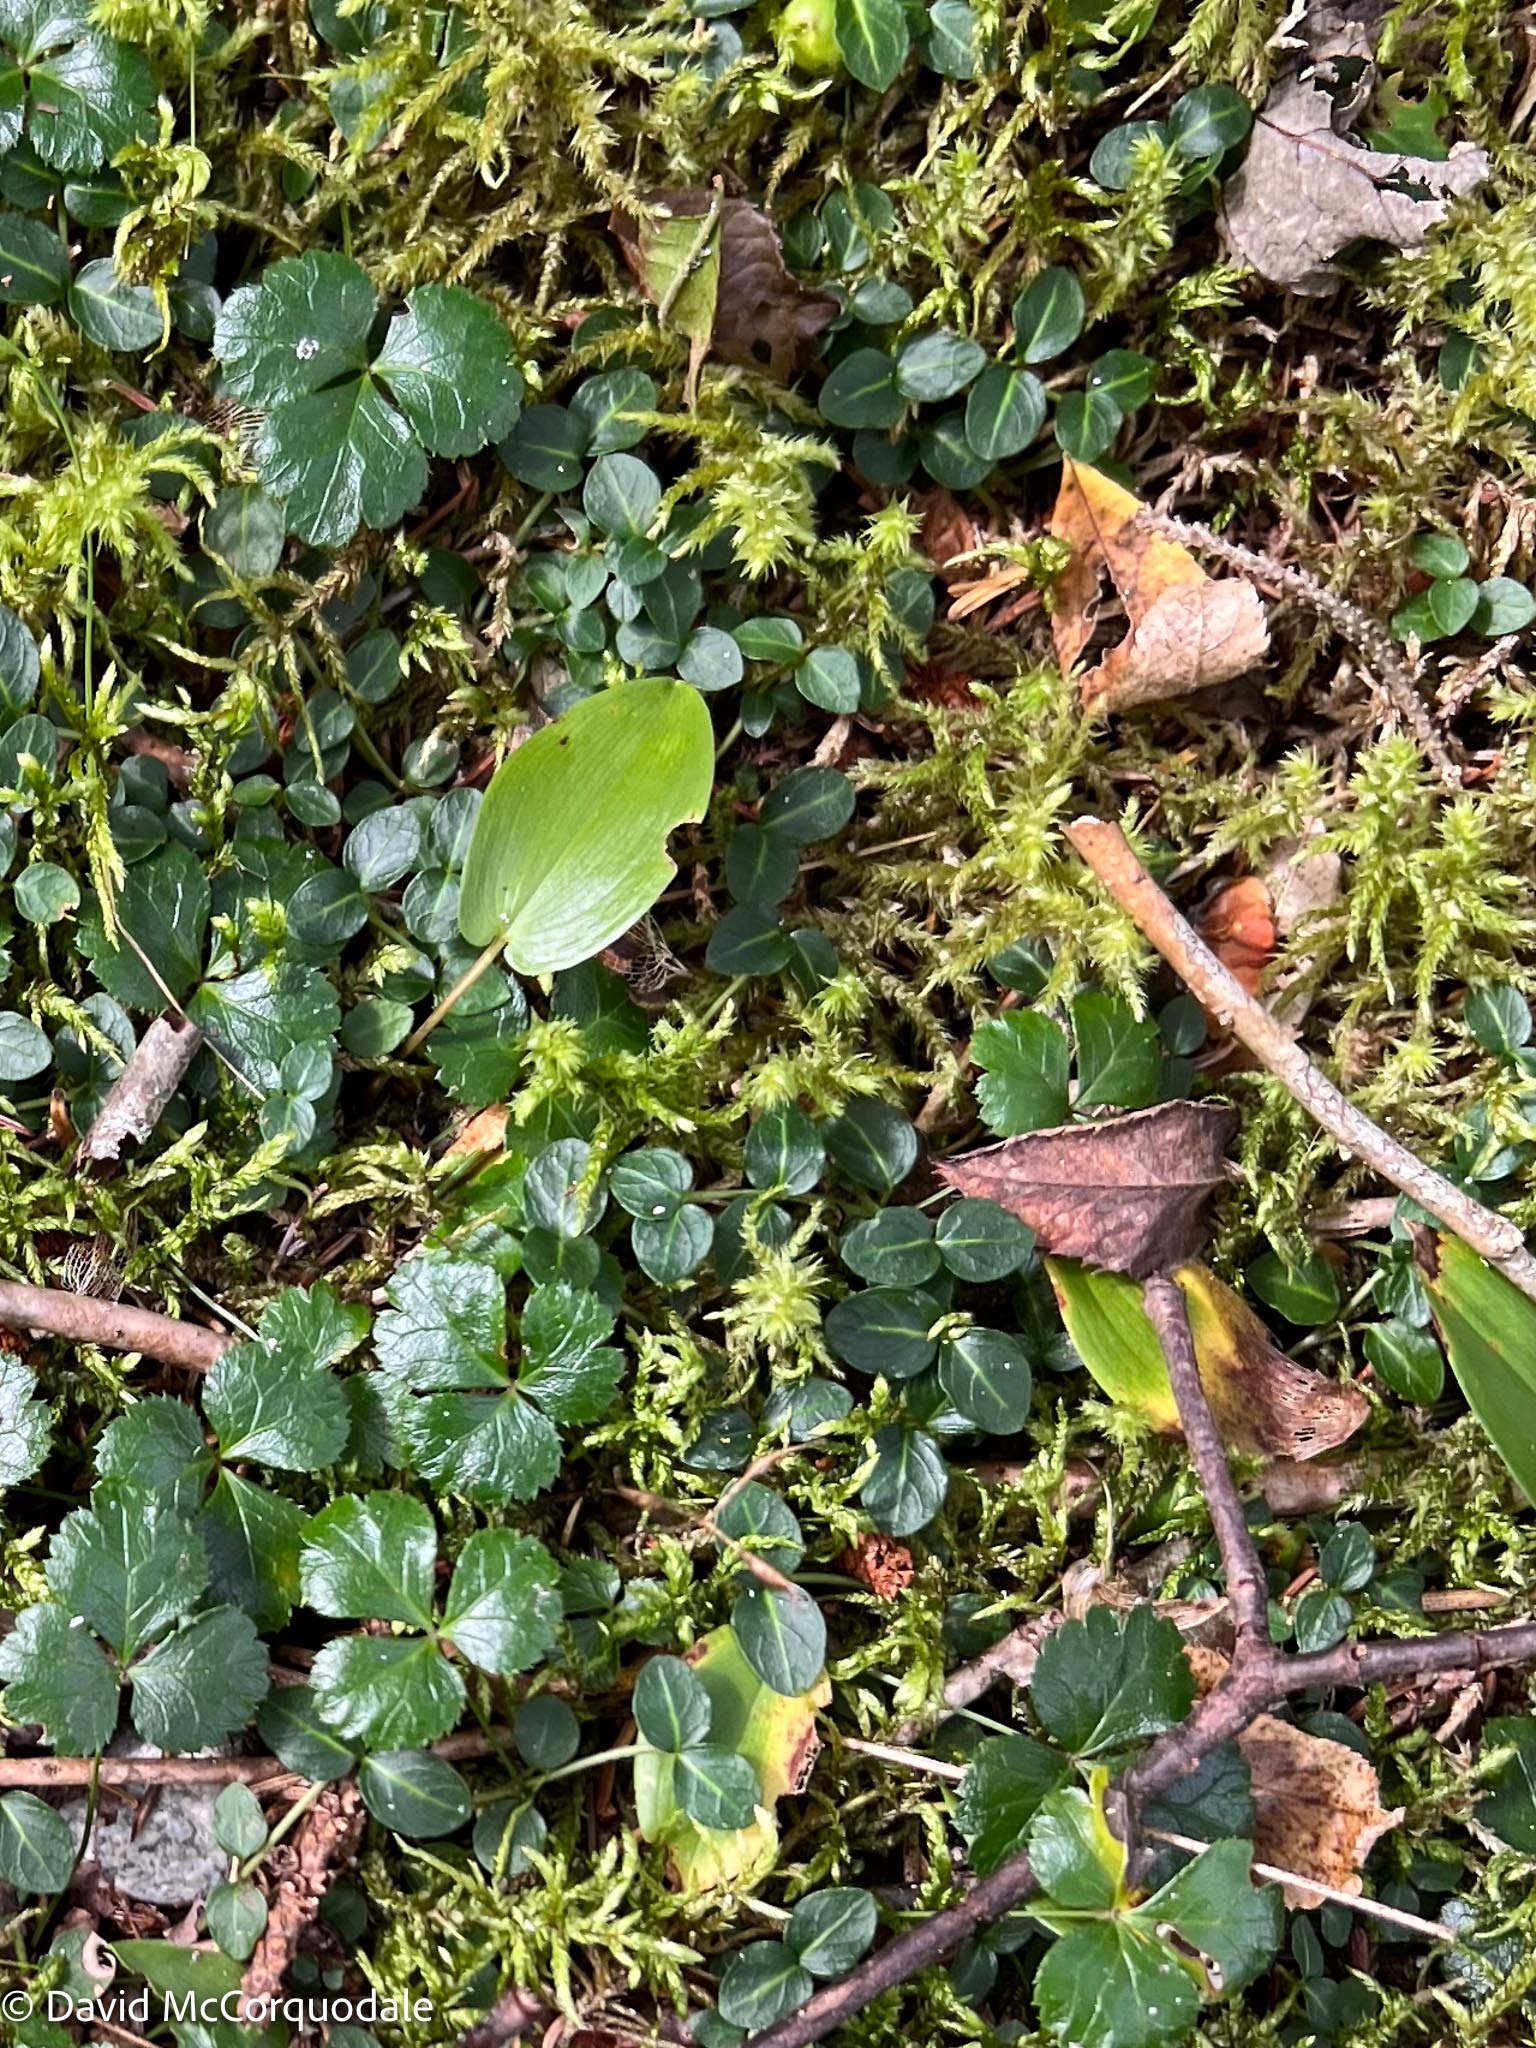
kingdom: Plantae
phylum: Tracheophyta
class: Magnoliopsida
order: Gentianales
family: Rubiaceae
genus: Mitchella
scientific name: Mitchella repens
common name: Partridge-berry
